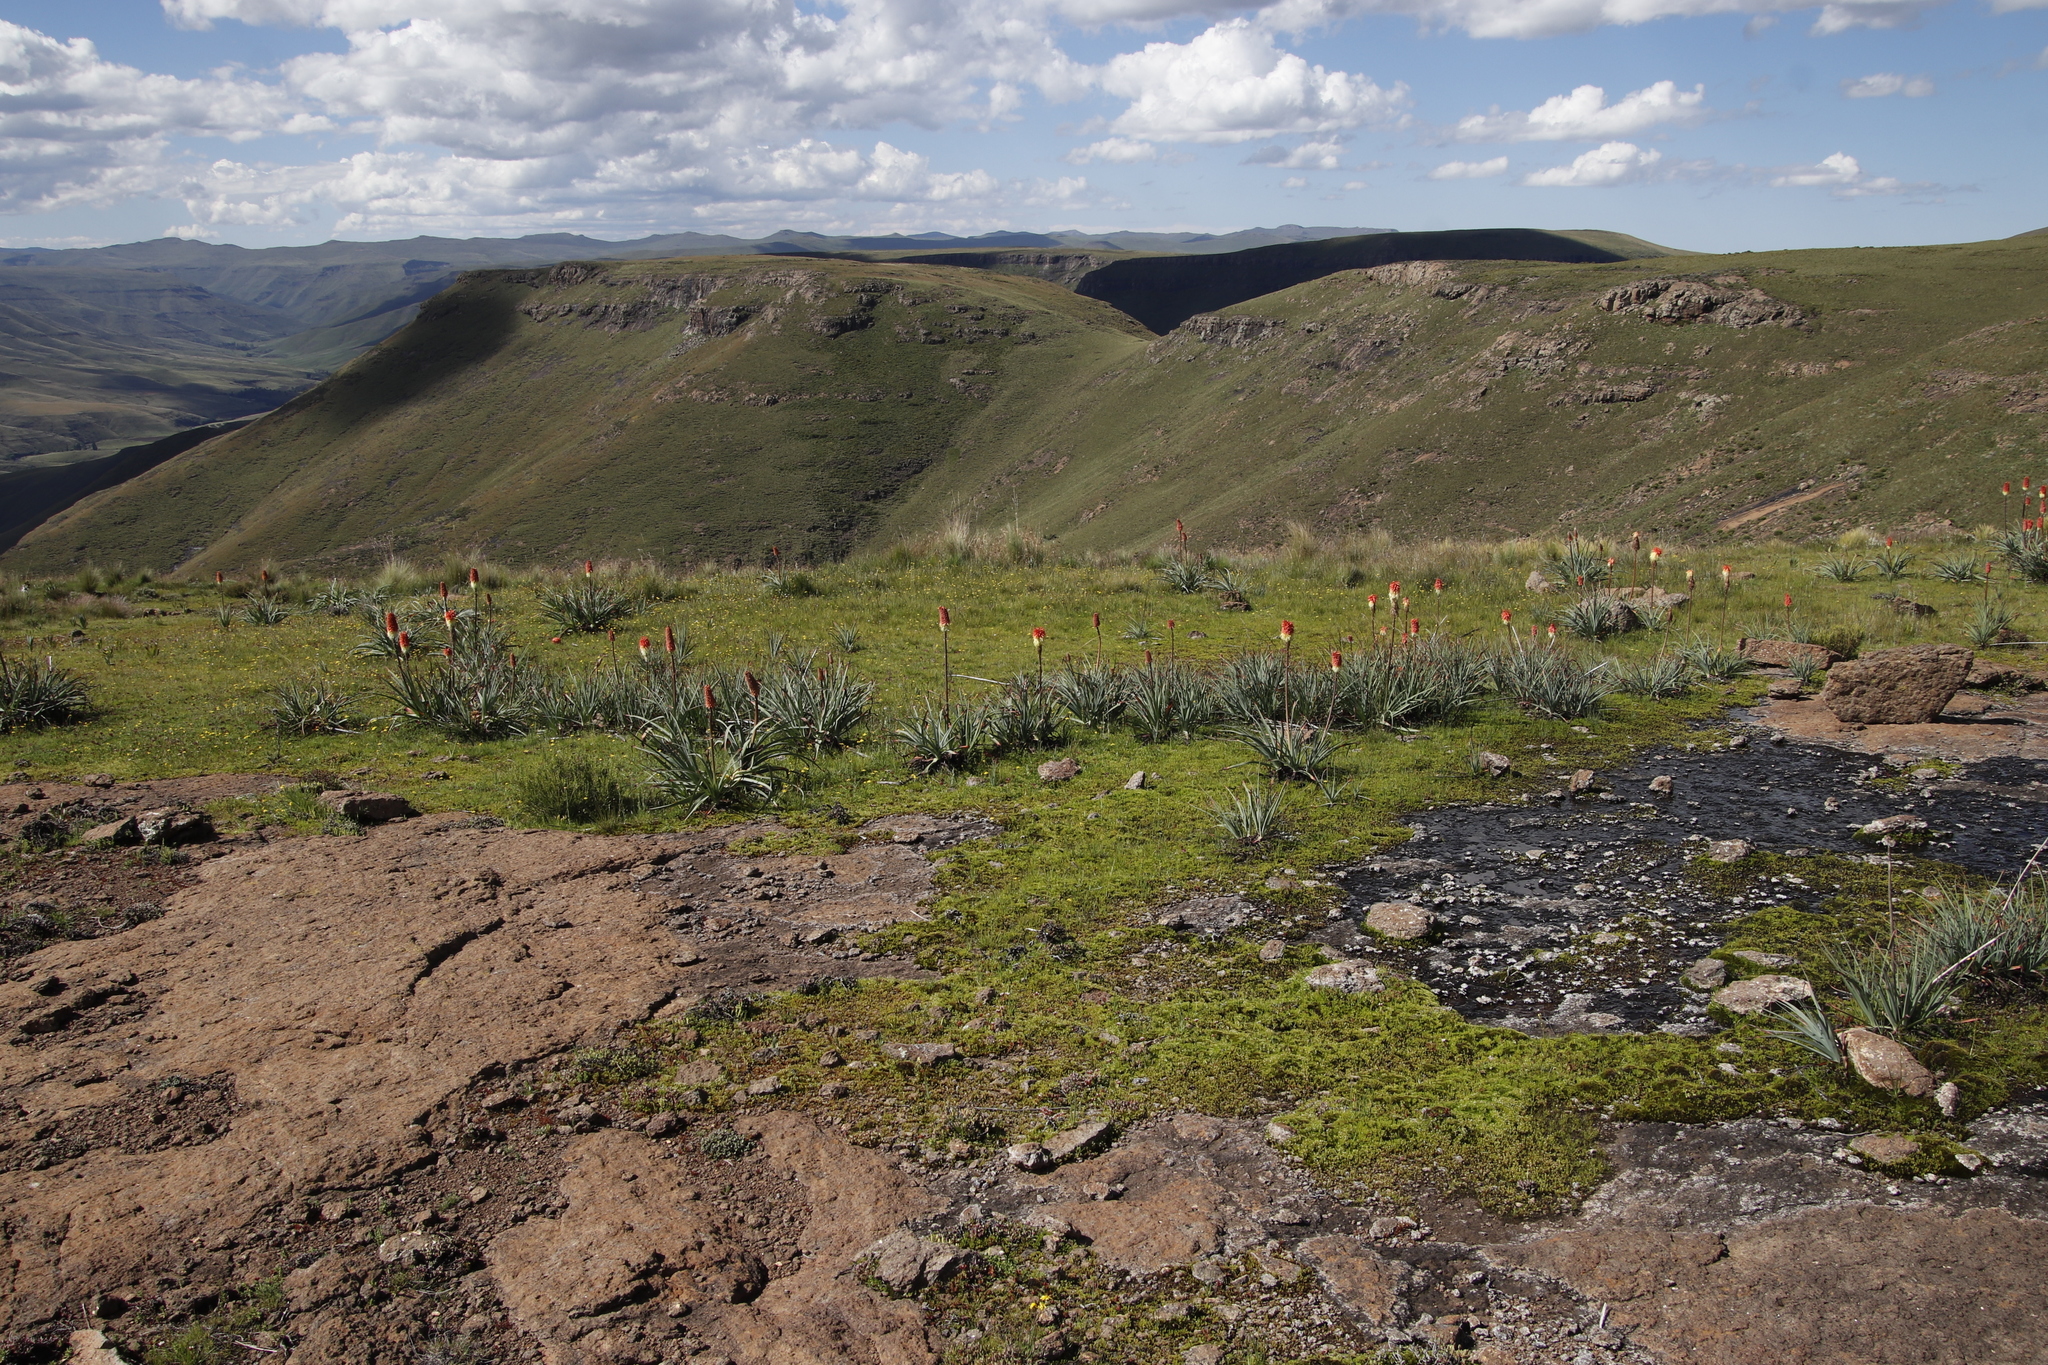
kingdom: Plantae
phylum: Tracheophyta
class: Liliopsida
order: Asparagales
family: Asphodelaceae
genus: Kniphofia
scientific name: Kniphofia caulescens
